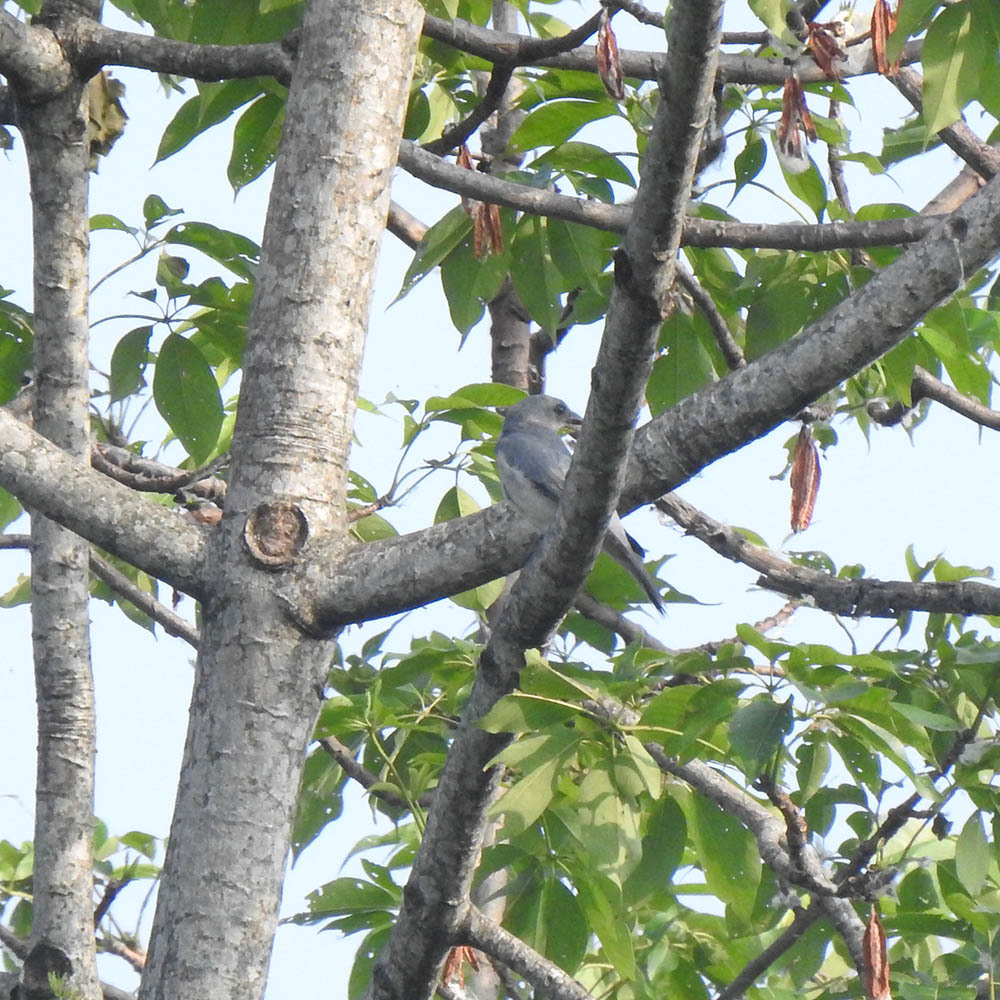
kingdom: Animalia
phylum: Chordata
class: Aves
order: Passeriformes
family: Campephagidae
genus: Coracina
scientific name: Coracina melaschistos
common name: Black-winged cuckooshrike
